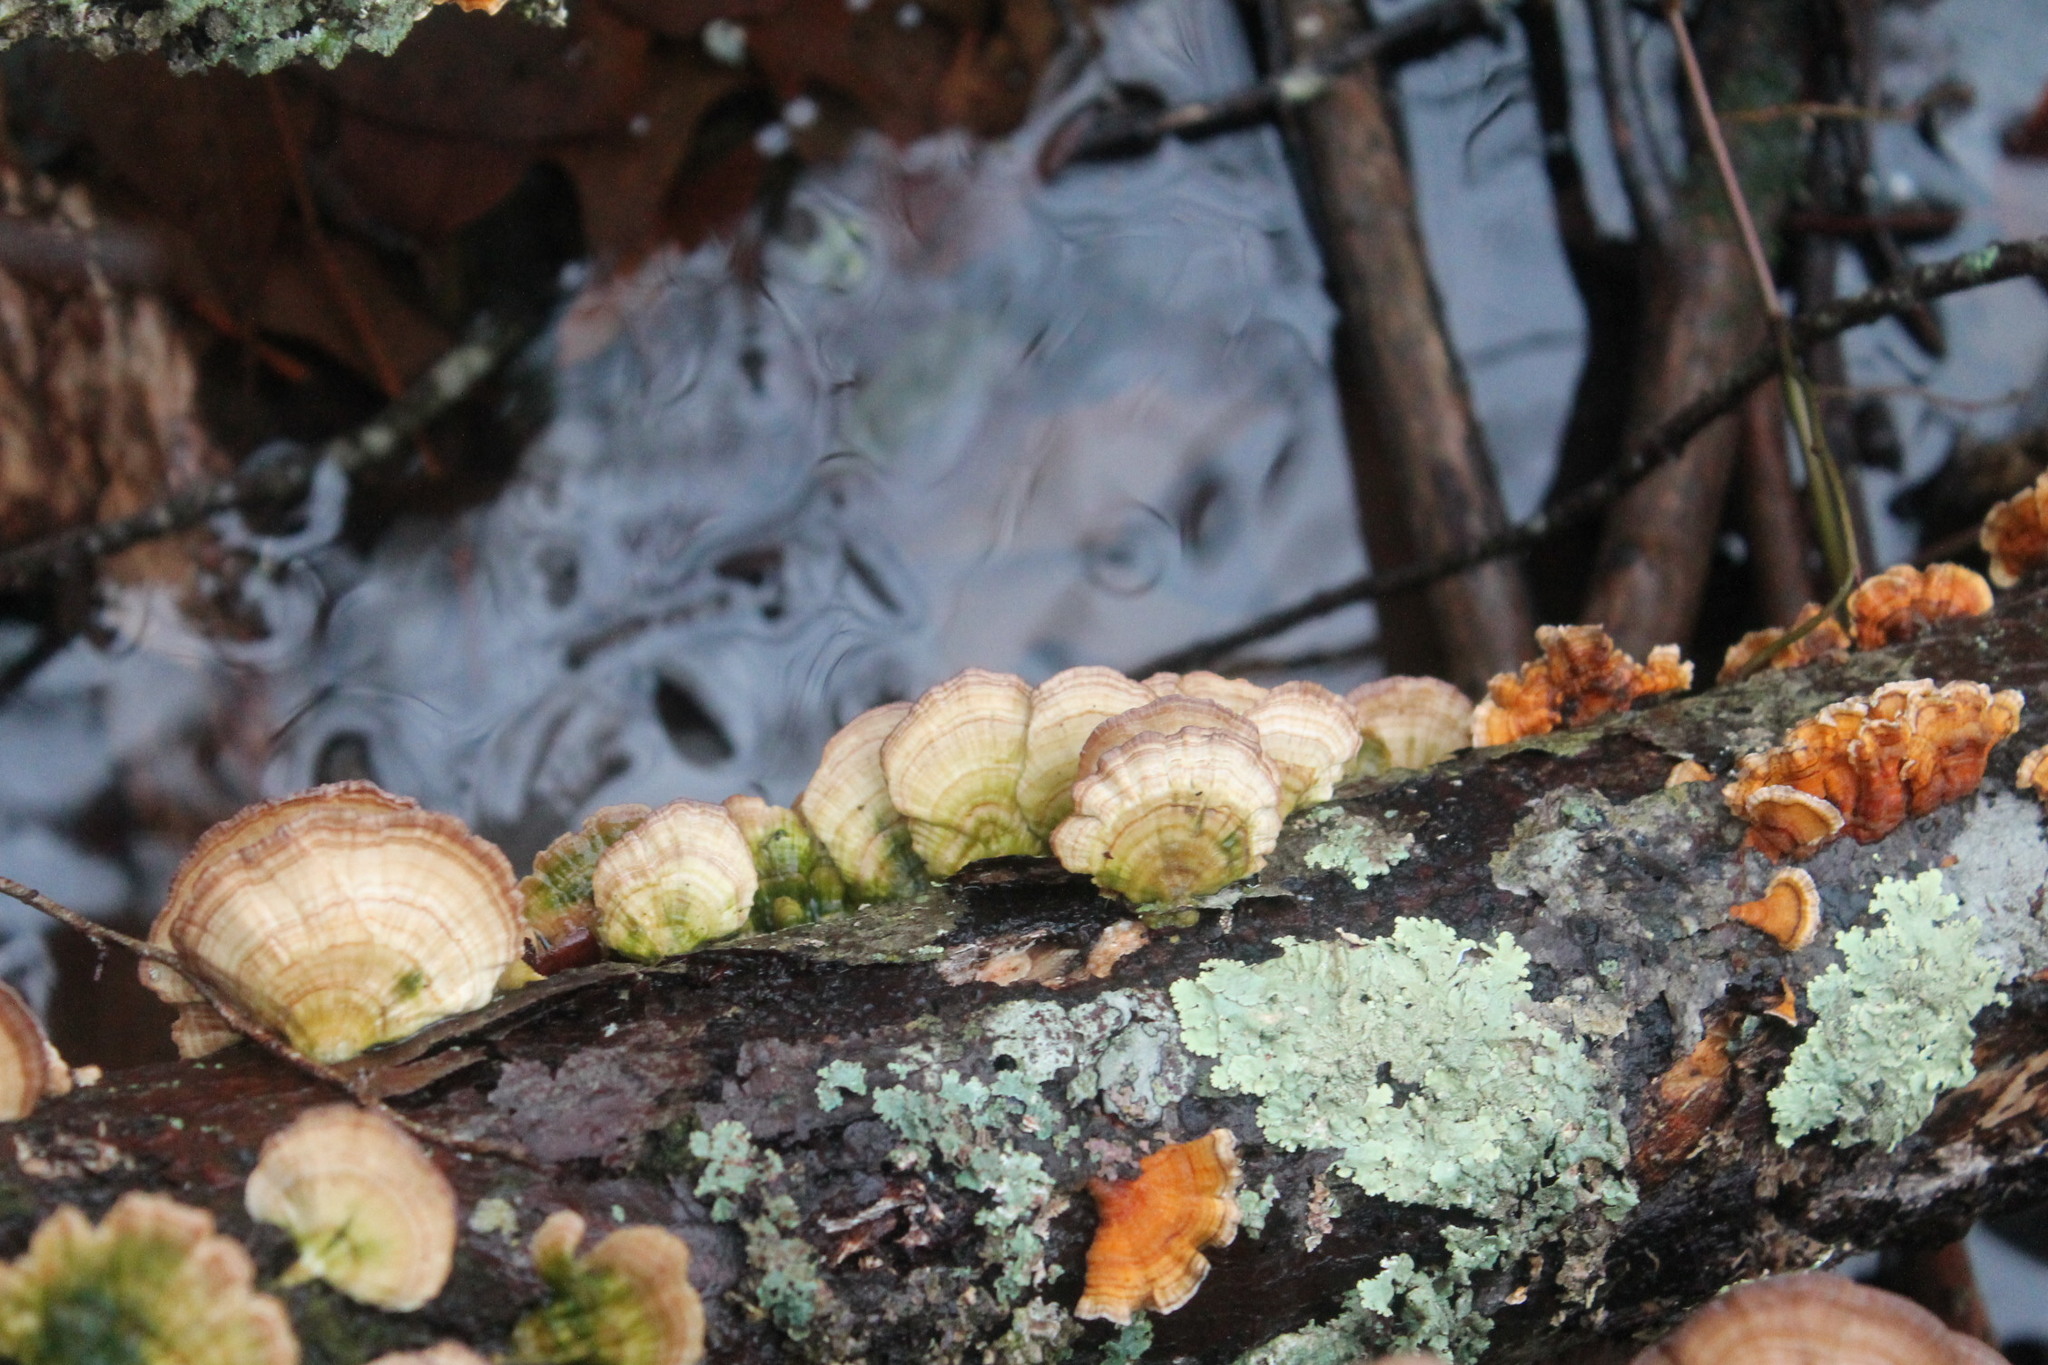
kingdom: Fungi
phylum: Basidiomycota
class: Agaricomycetes
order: Hymenochaetales
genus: Trichaptum
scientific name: Trichaptum biforme
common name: Violet-toothed polypore
